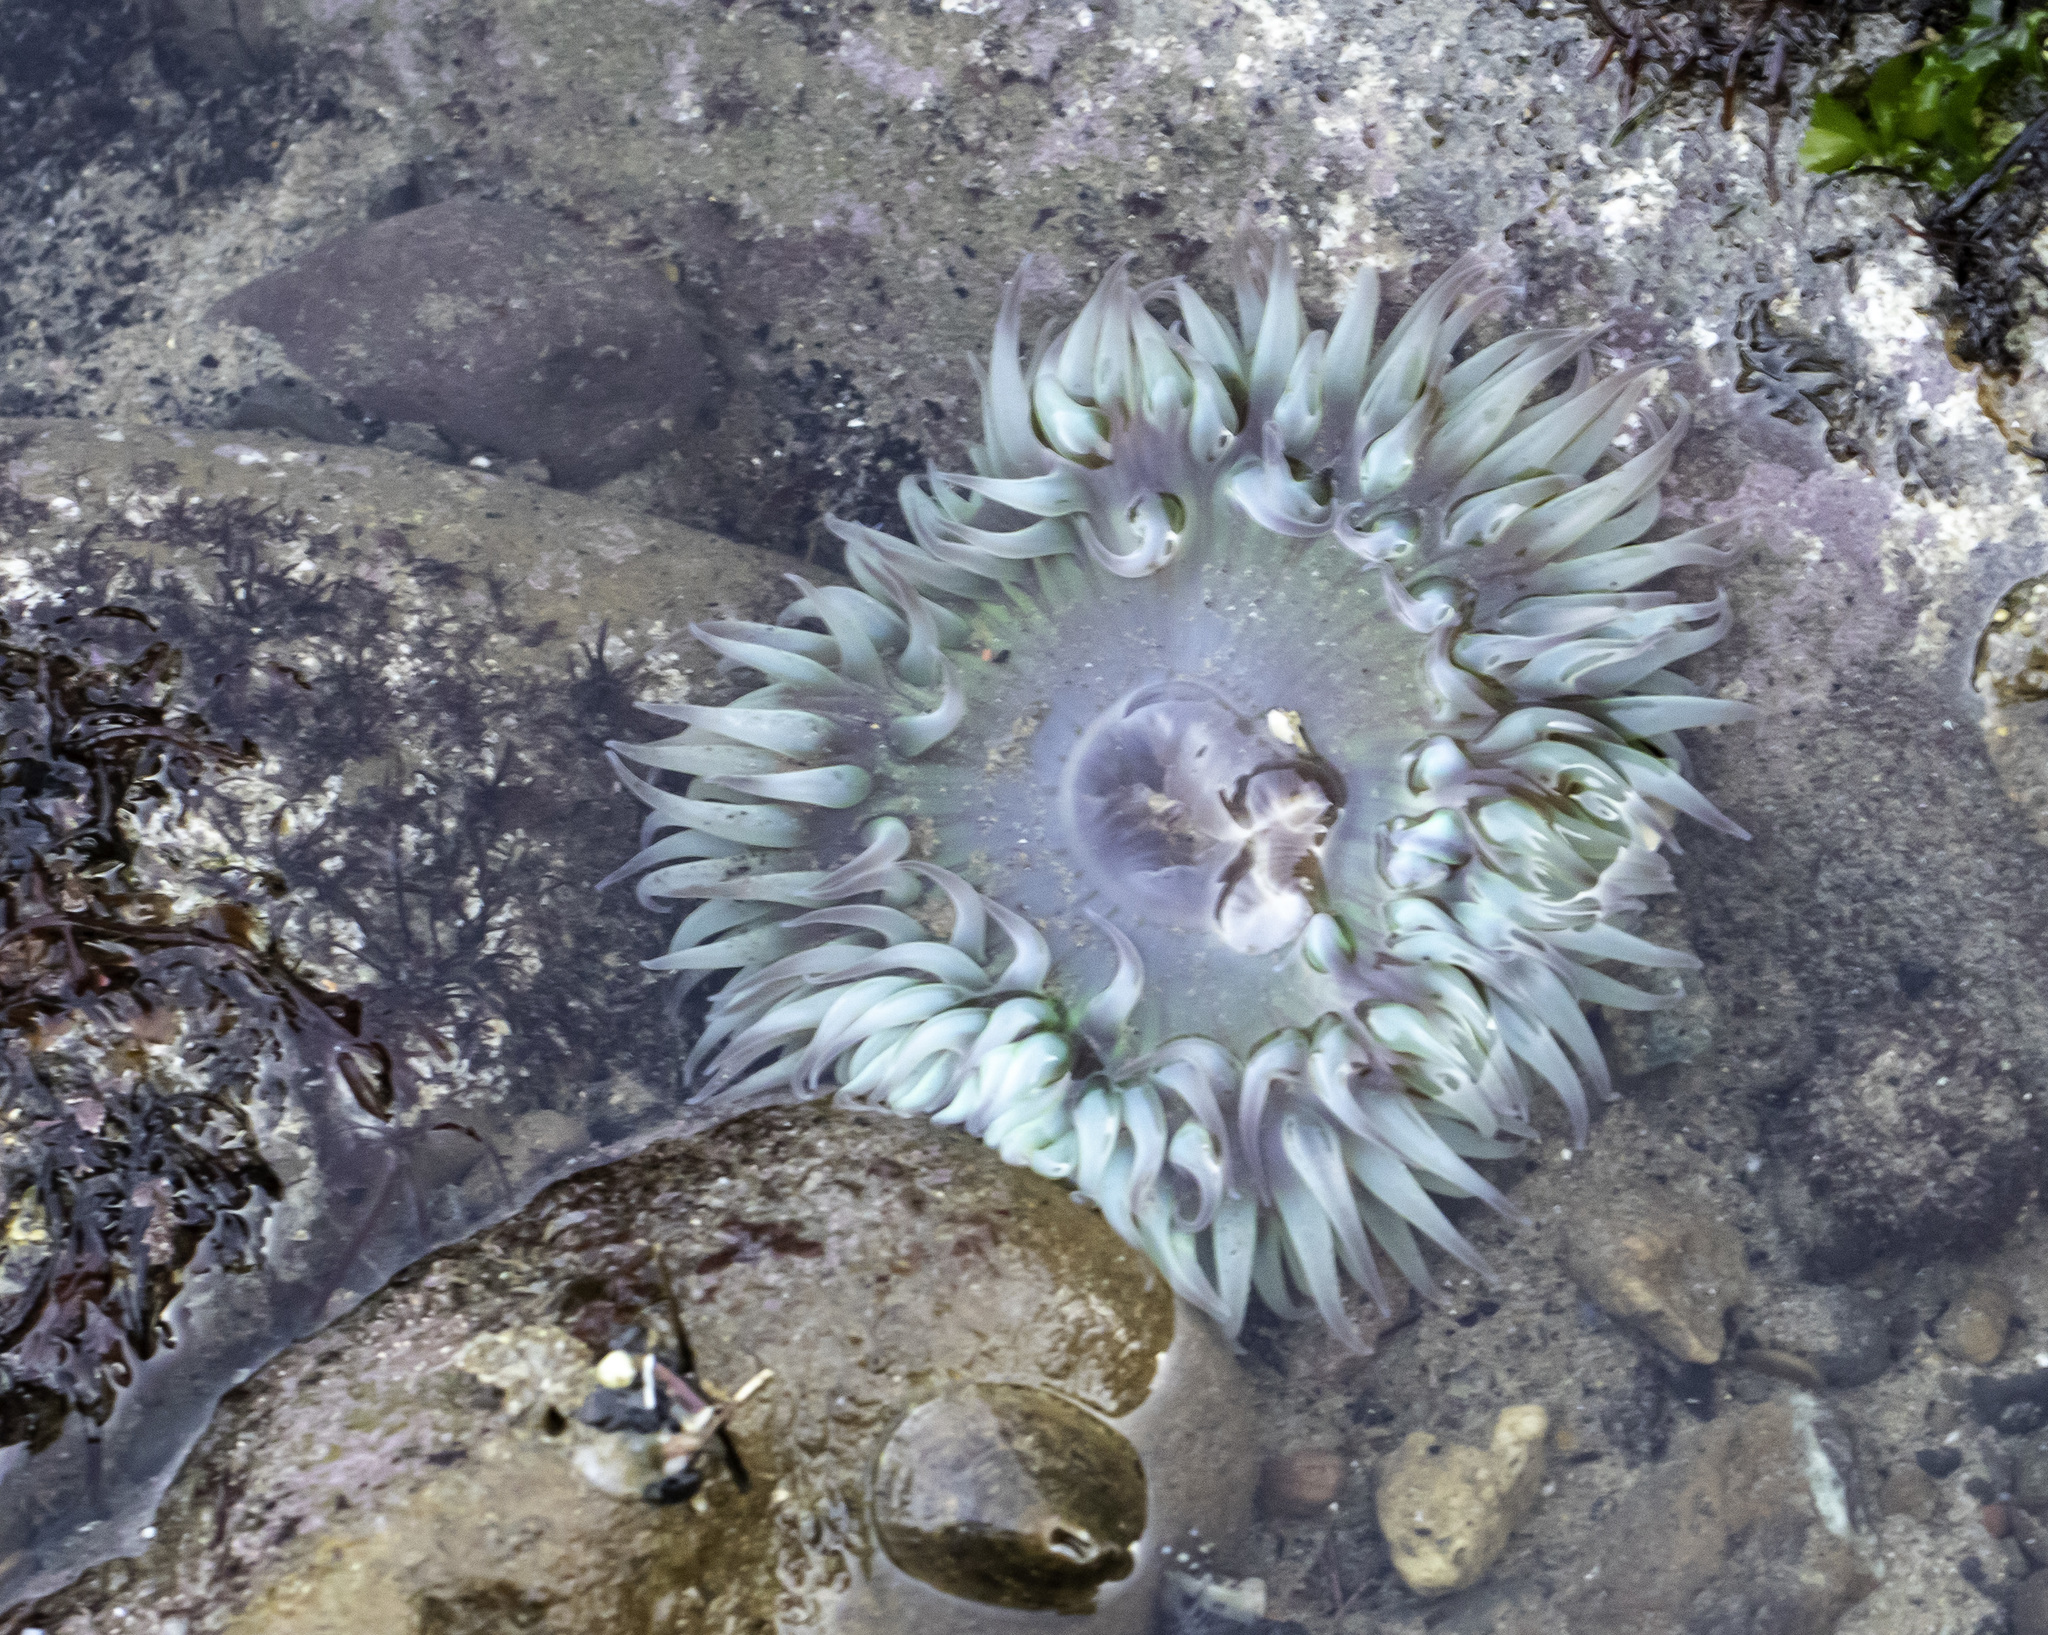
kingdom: Animalia
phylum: Cnidaria
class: Anthozoa
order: Actiniaria
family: Actiniidae
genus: Anthopleura
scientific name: Anthopleura sola
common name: Sun anemone
